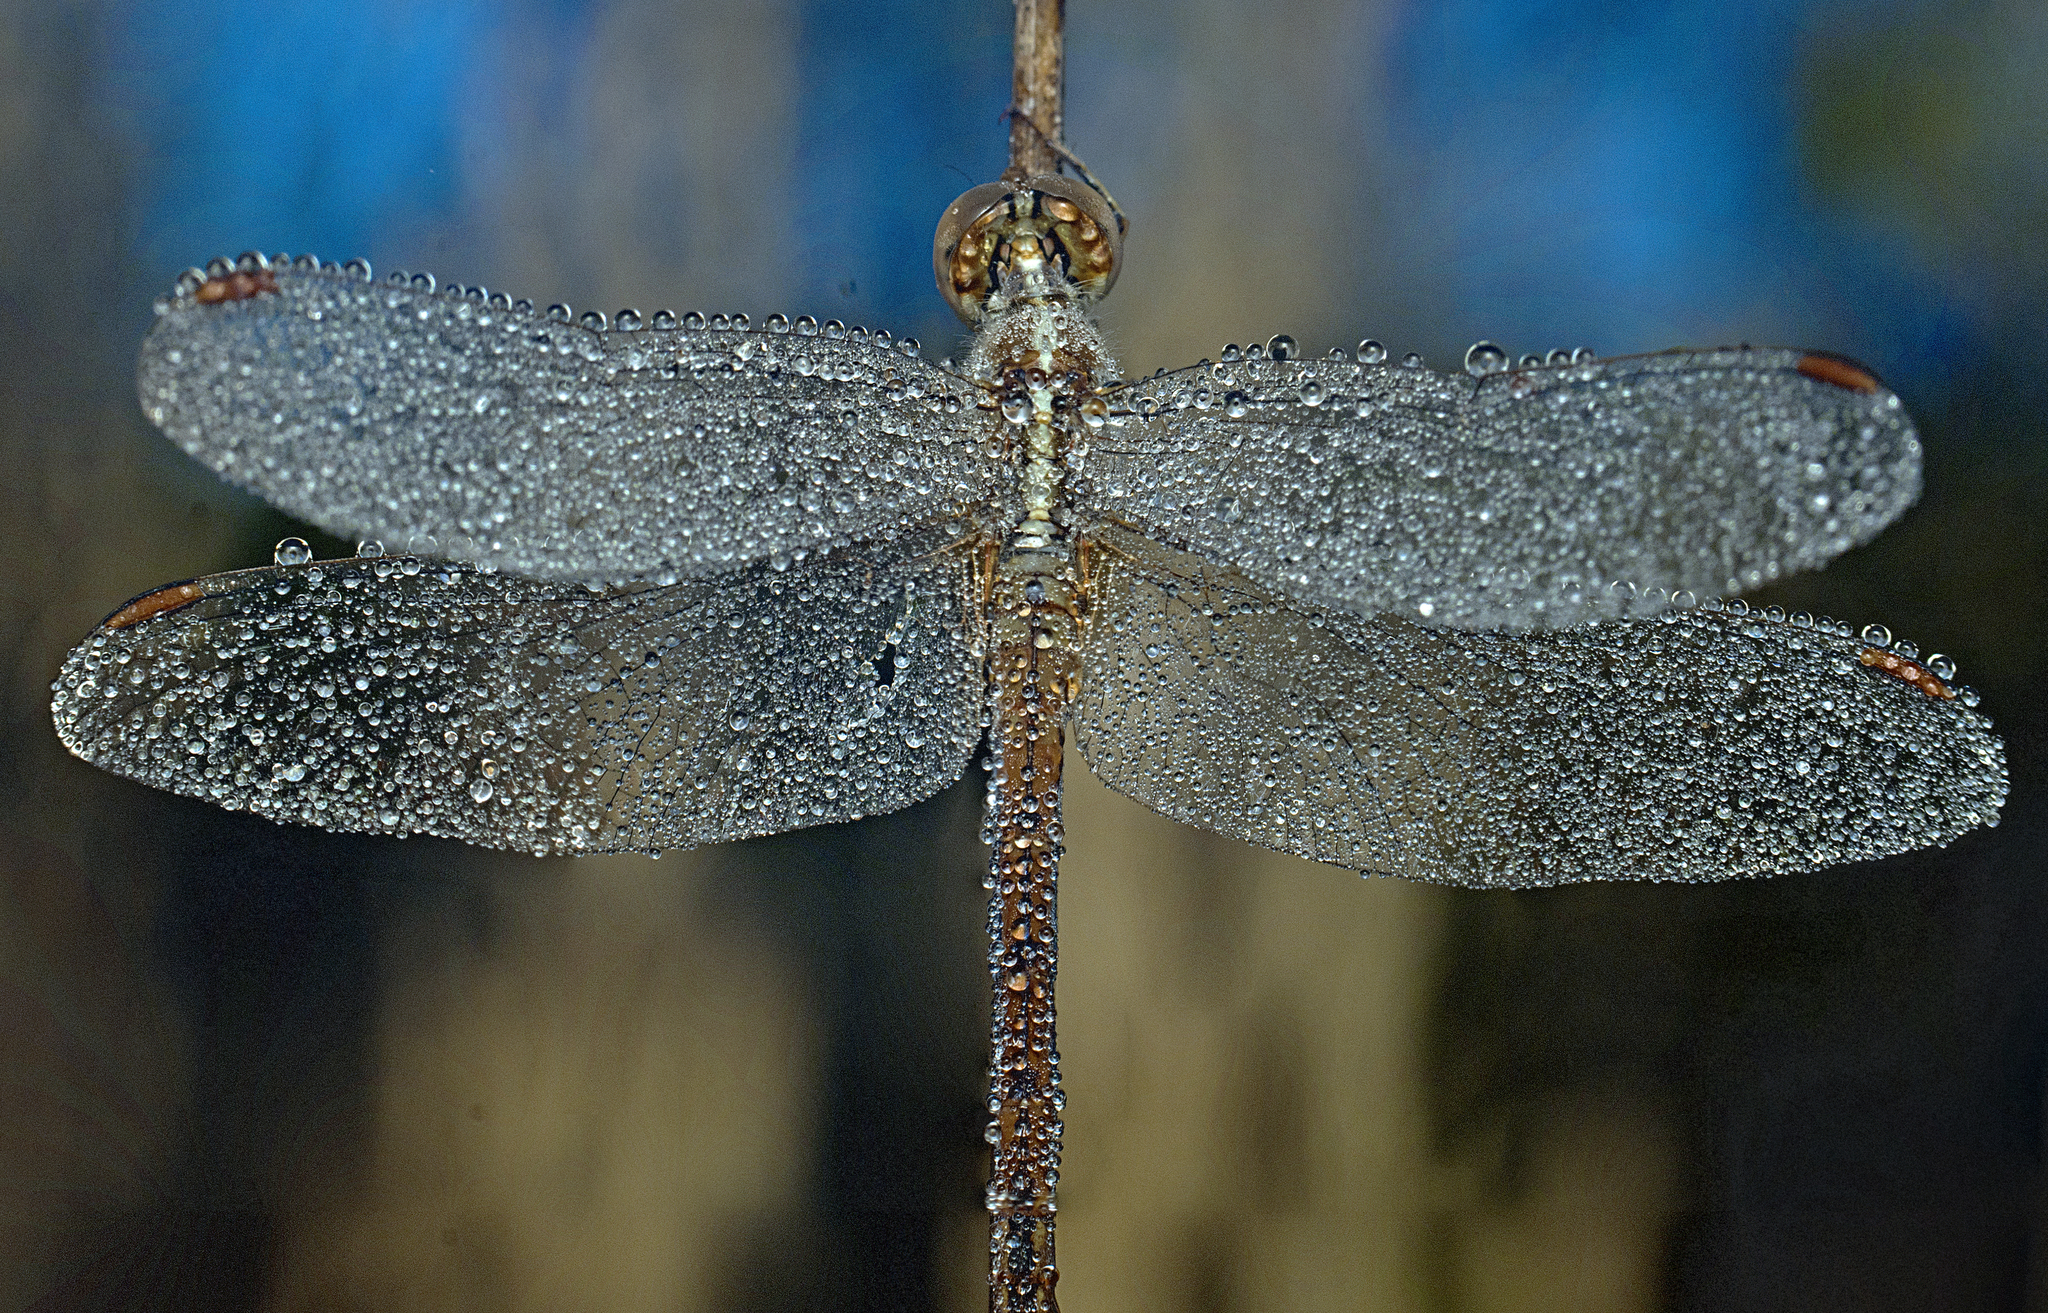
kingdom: Animalia
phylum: Arthropoda
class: Insecta
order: Odonata
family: Libellulidae
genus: Diplacodes
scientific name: Diplacodes haematodes
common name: Scarlet percher
